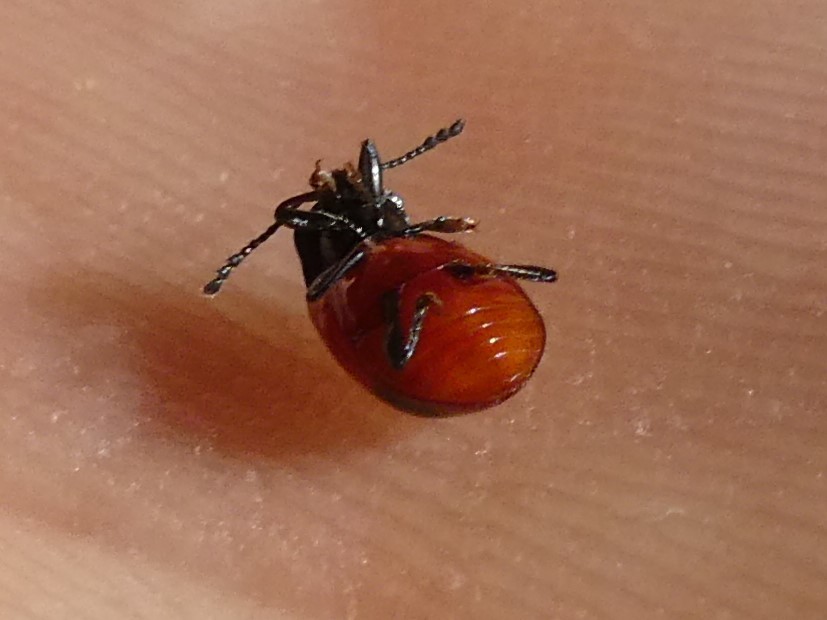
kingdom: Animalia
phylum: Arthropoda
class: Insecta
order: Coleoptera
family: Endomychidae
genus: Endomychus
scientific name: Endomychus biguttatus
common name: Handsome fungus beetle
